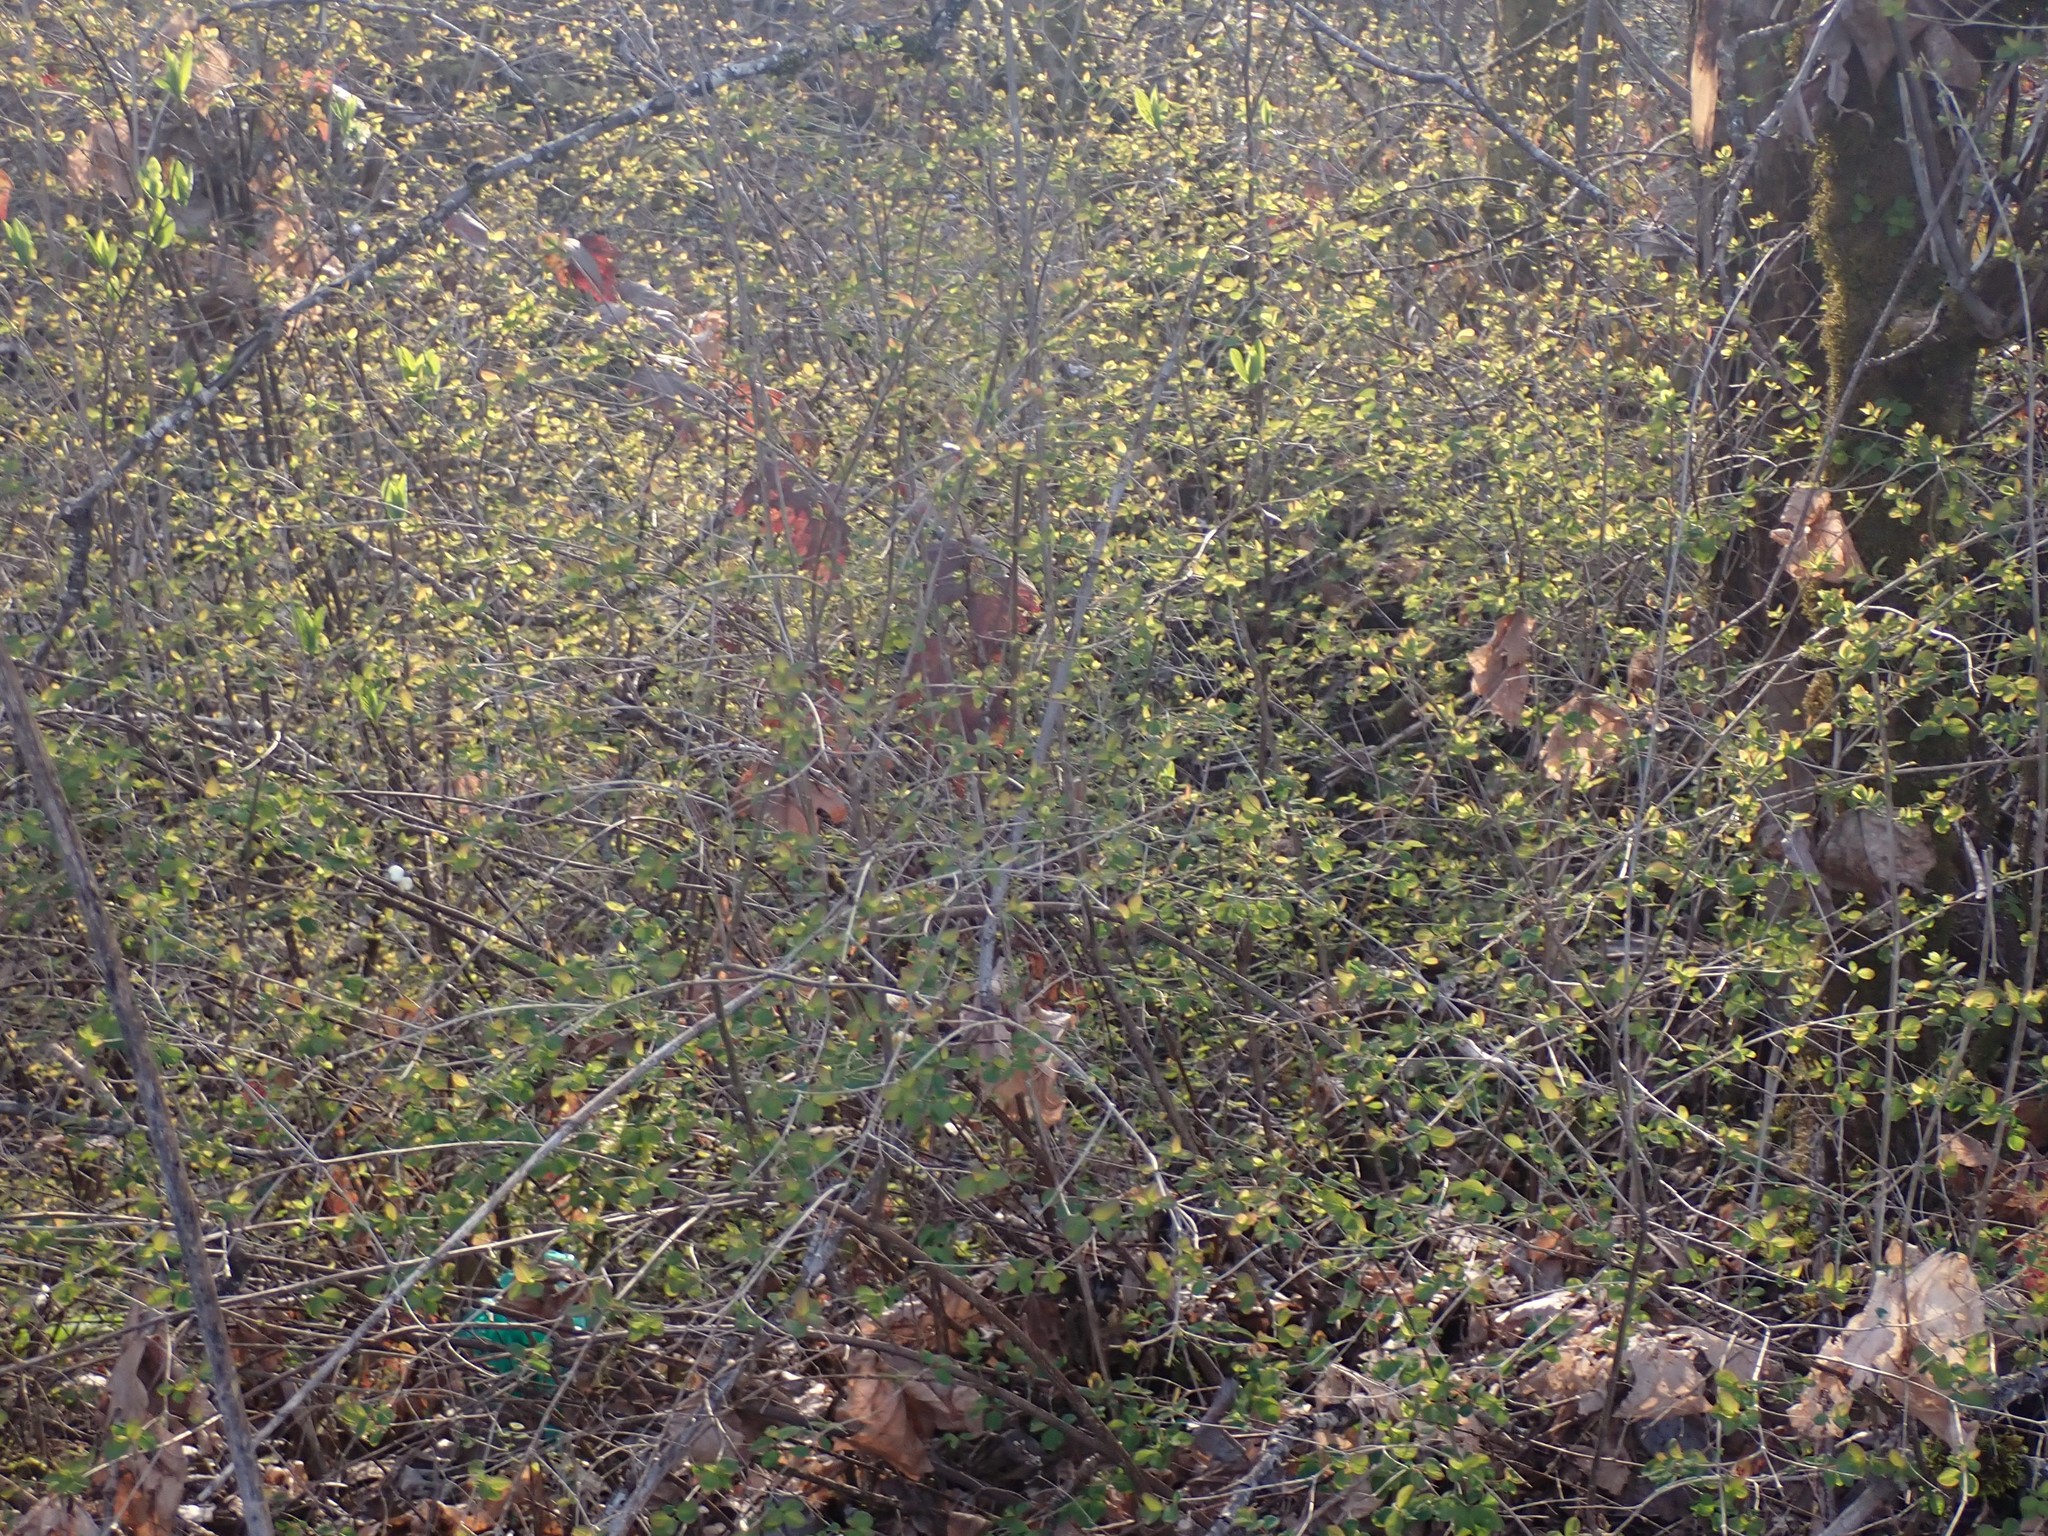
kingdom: Plantae
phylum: Tracheophyta
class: Magnoliopsida
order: Dipsacales
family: Caprifoliaceae
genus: Symphoricarpos
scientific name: Symphoricarpos albus
